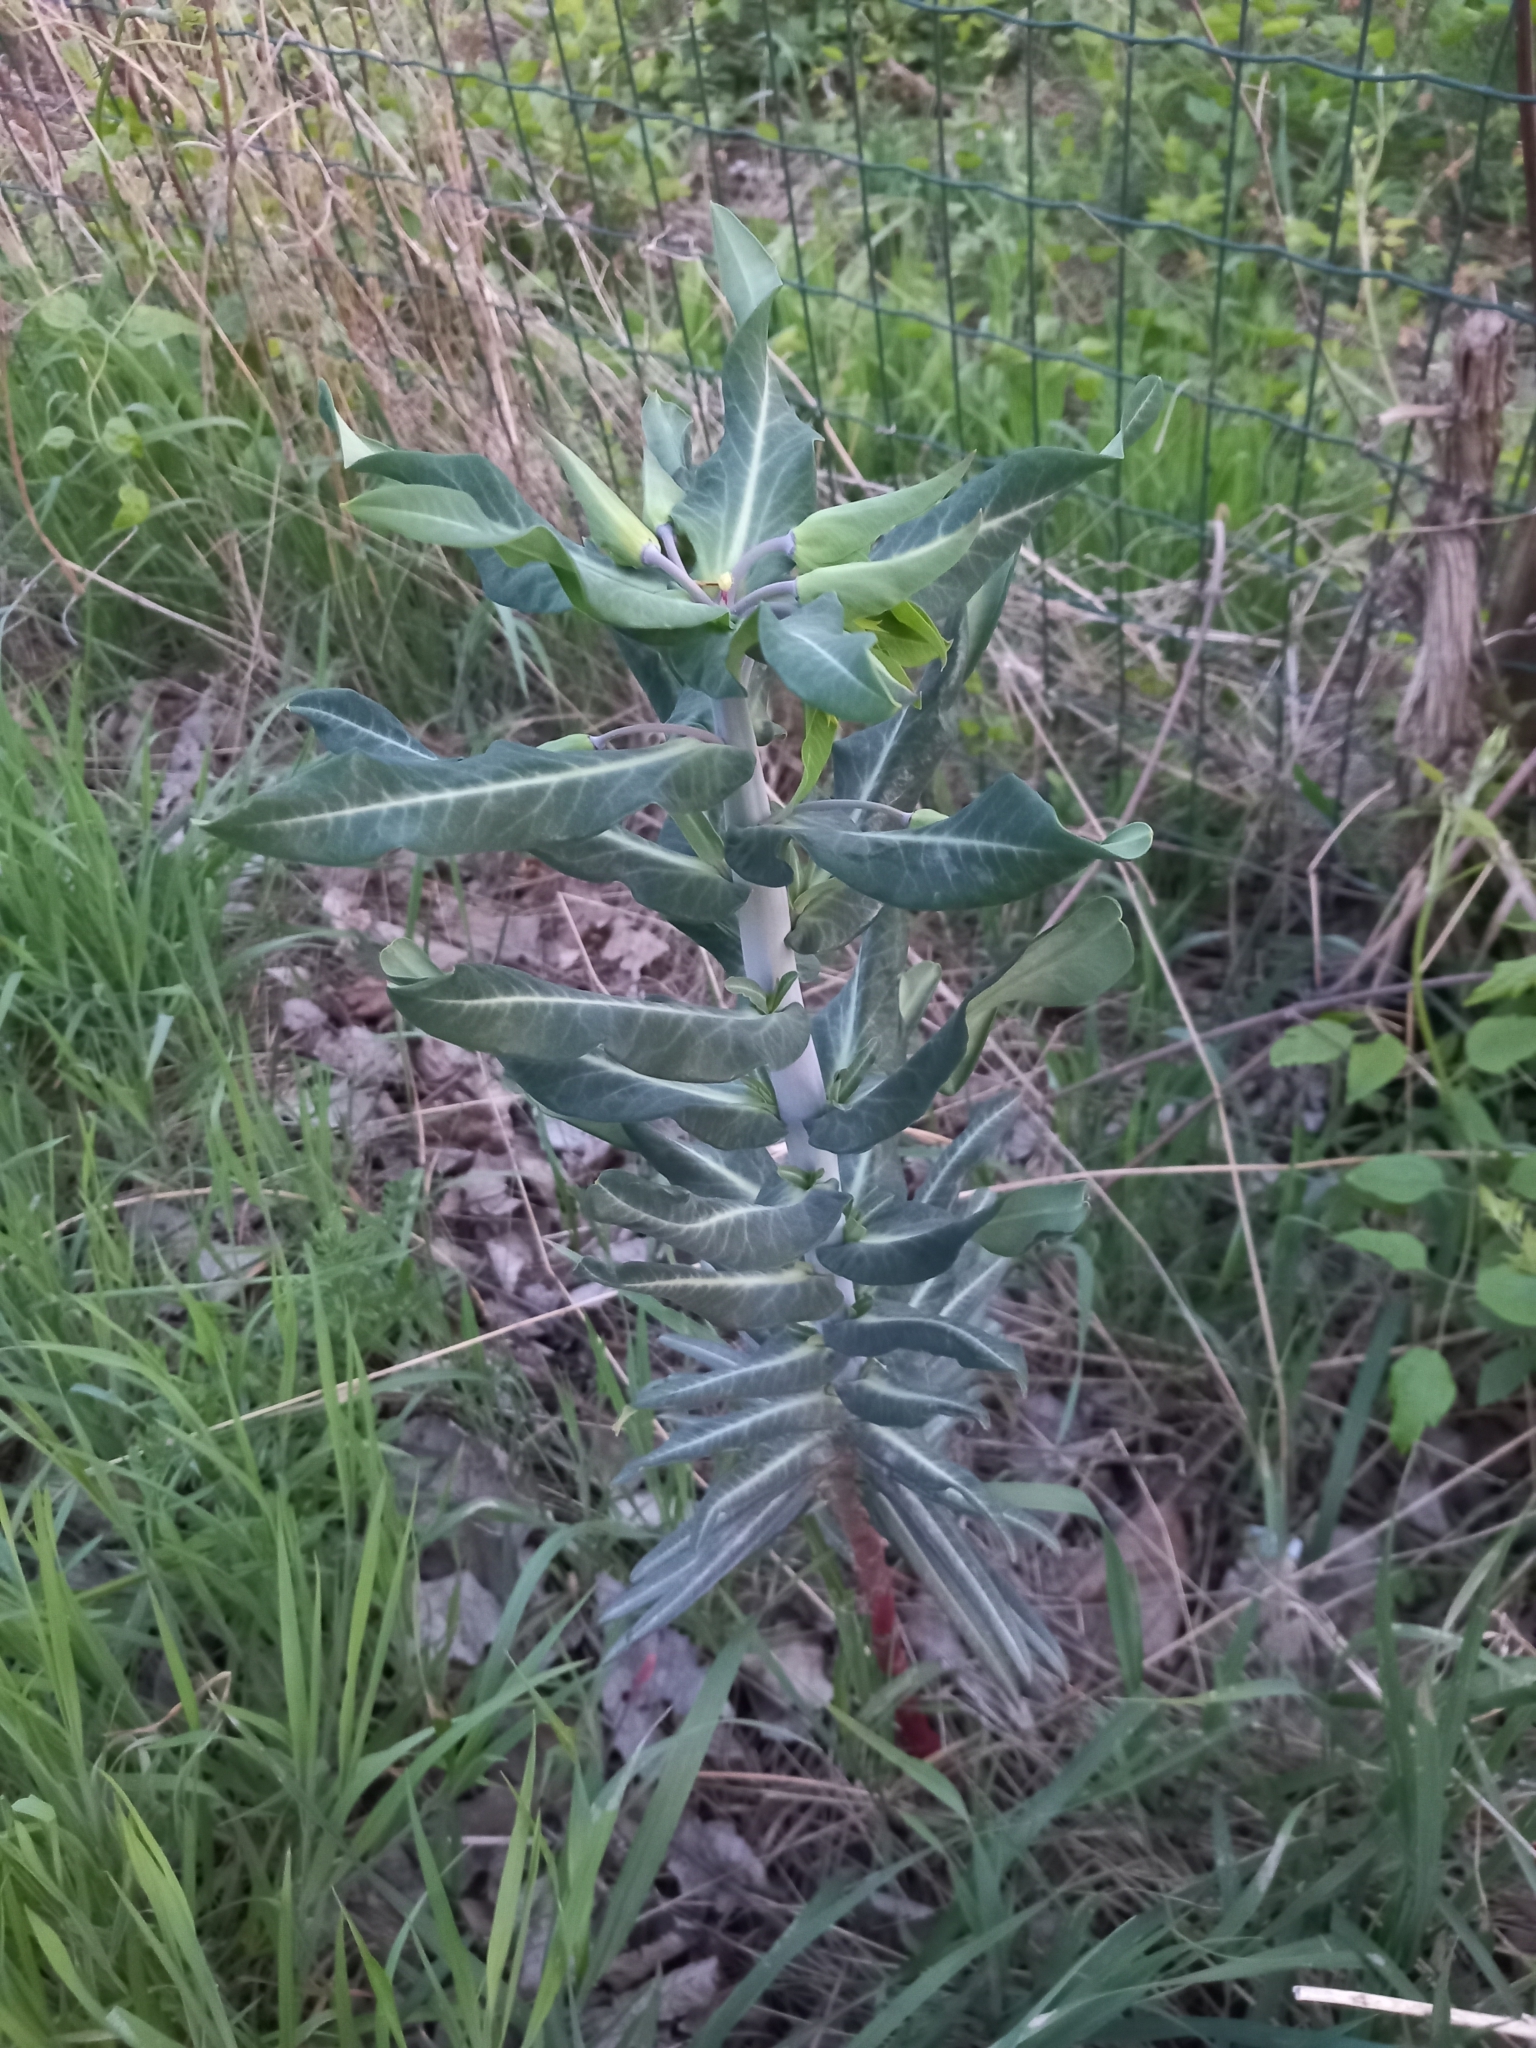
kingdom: Plantae
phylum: Tracheophyta
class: Magnoliopsida
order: Malpighiales
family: Euphorbiaceae
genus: Euphorbia
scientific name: Euphorbia lathyris
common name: Caper spurge
